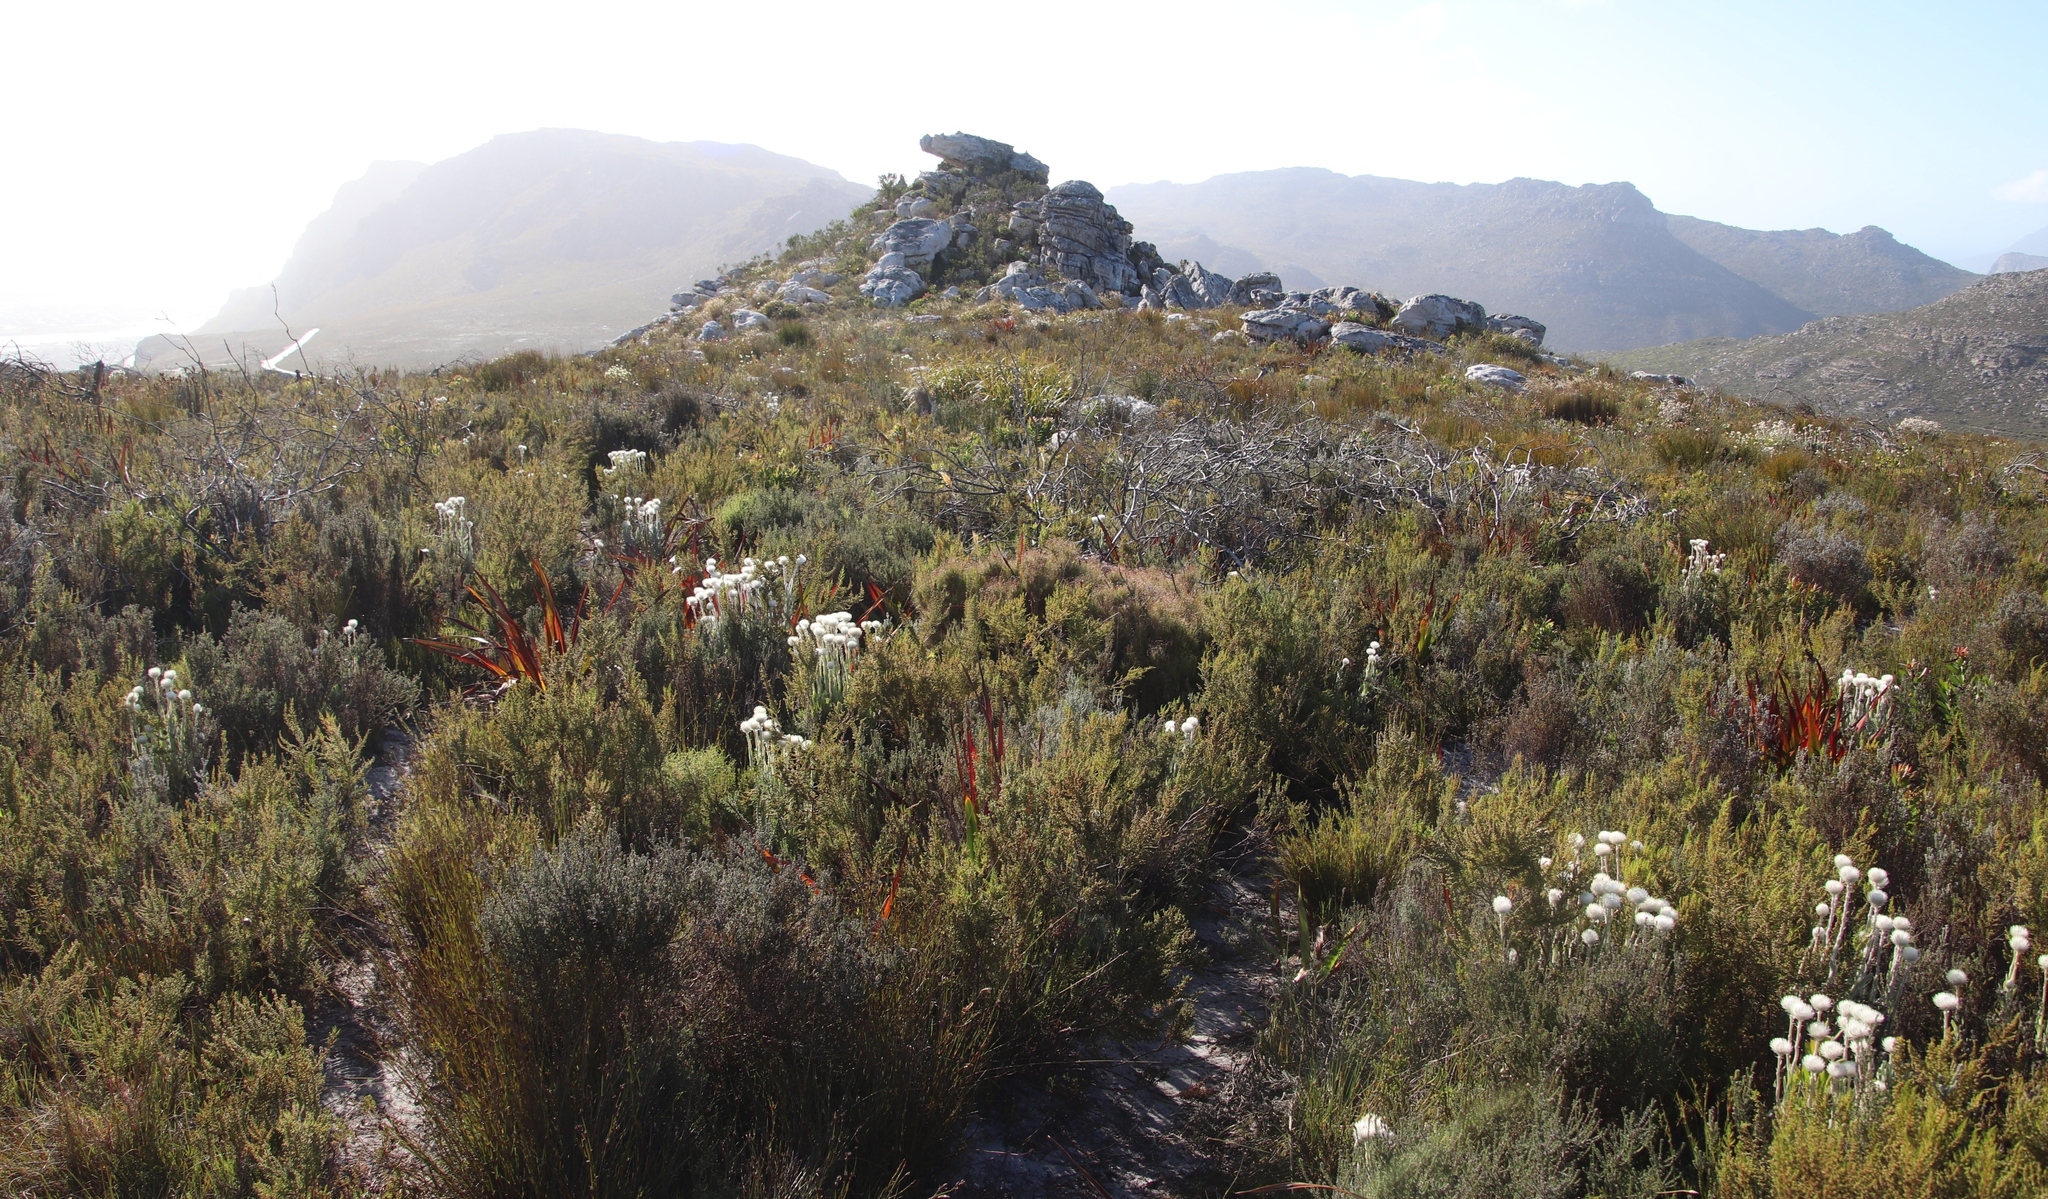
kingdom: Plantae
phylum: Tracheophyta
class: Magnoliopsida
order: Asterales
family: Asteraceae
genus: Syncarpha
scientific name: Syncarpha vestita
